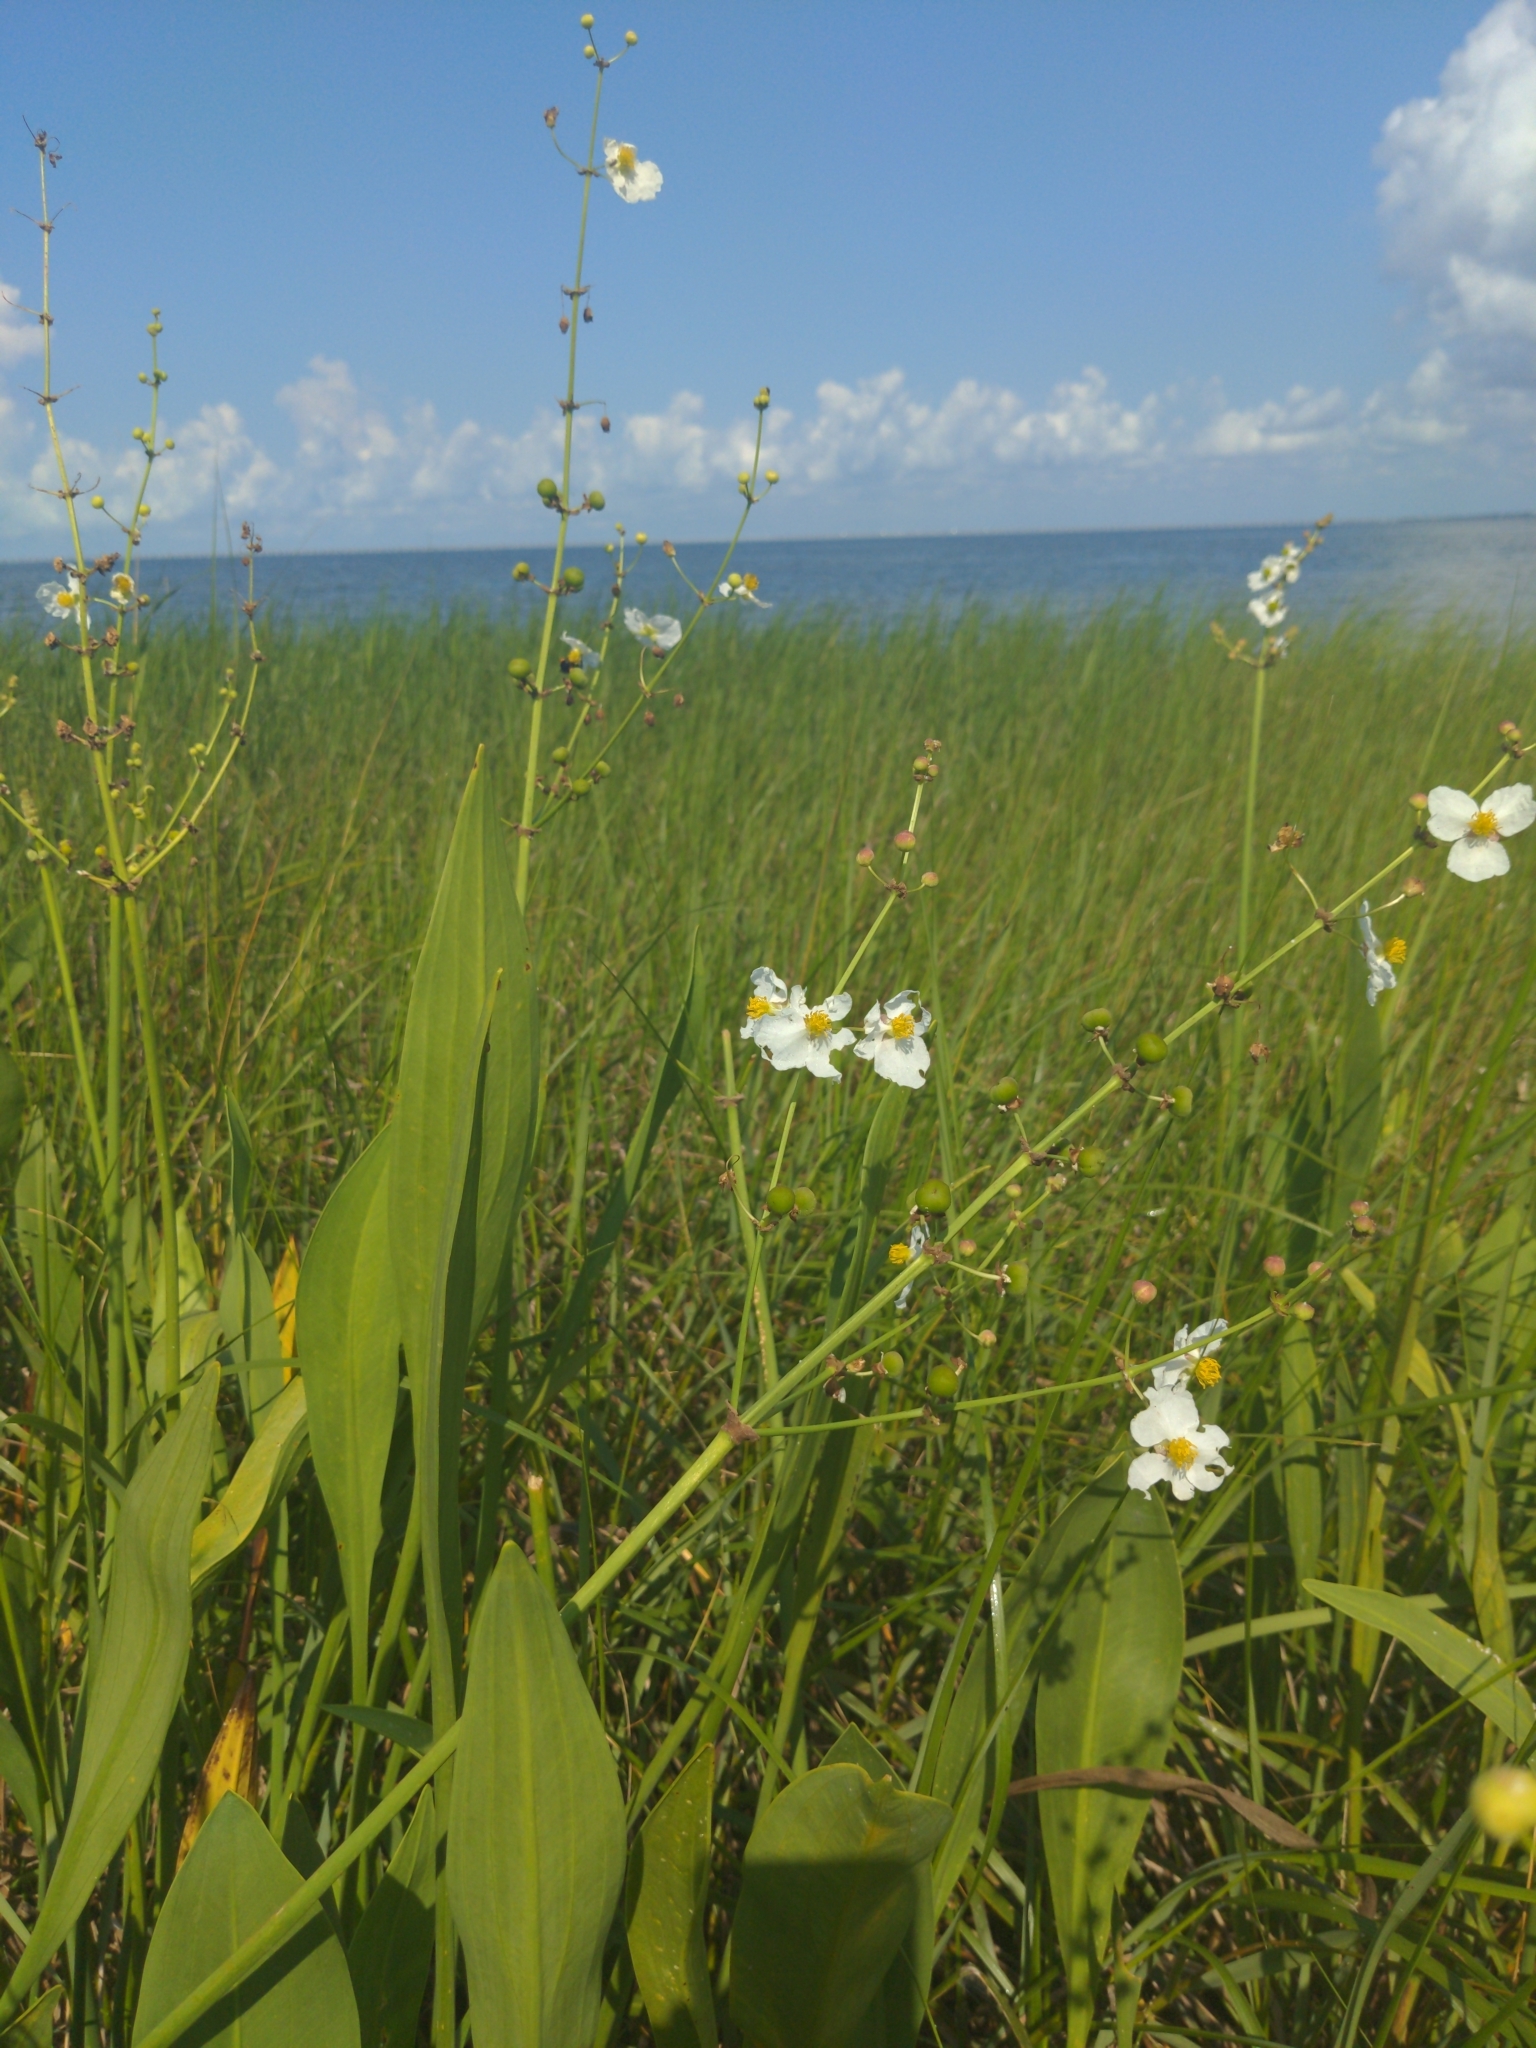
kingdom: Plantae
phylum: Tracheophyta
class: Liliopsida
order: Alismatales
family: Alismataceae
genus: Sagittaria
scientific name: Sagittaria lancifolia
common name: Lance-leaf arrowhead
